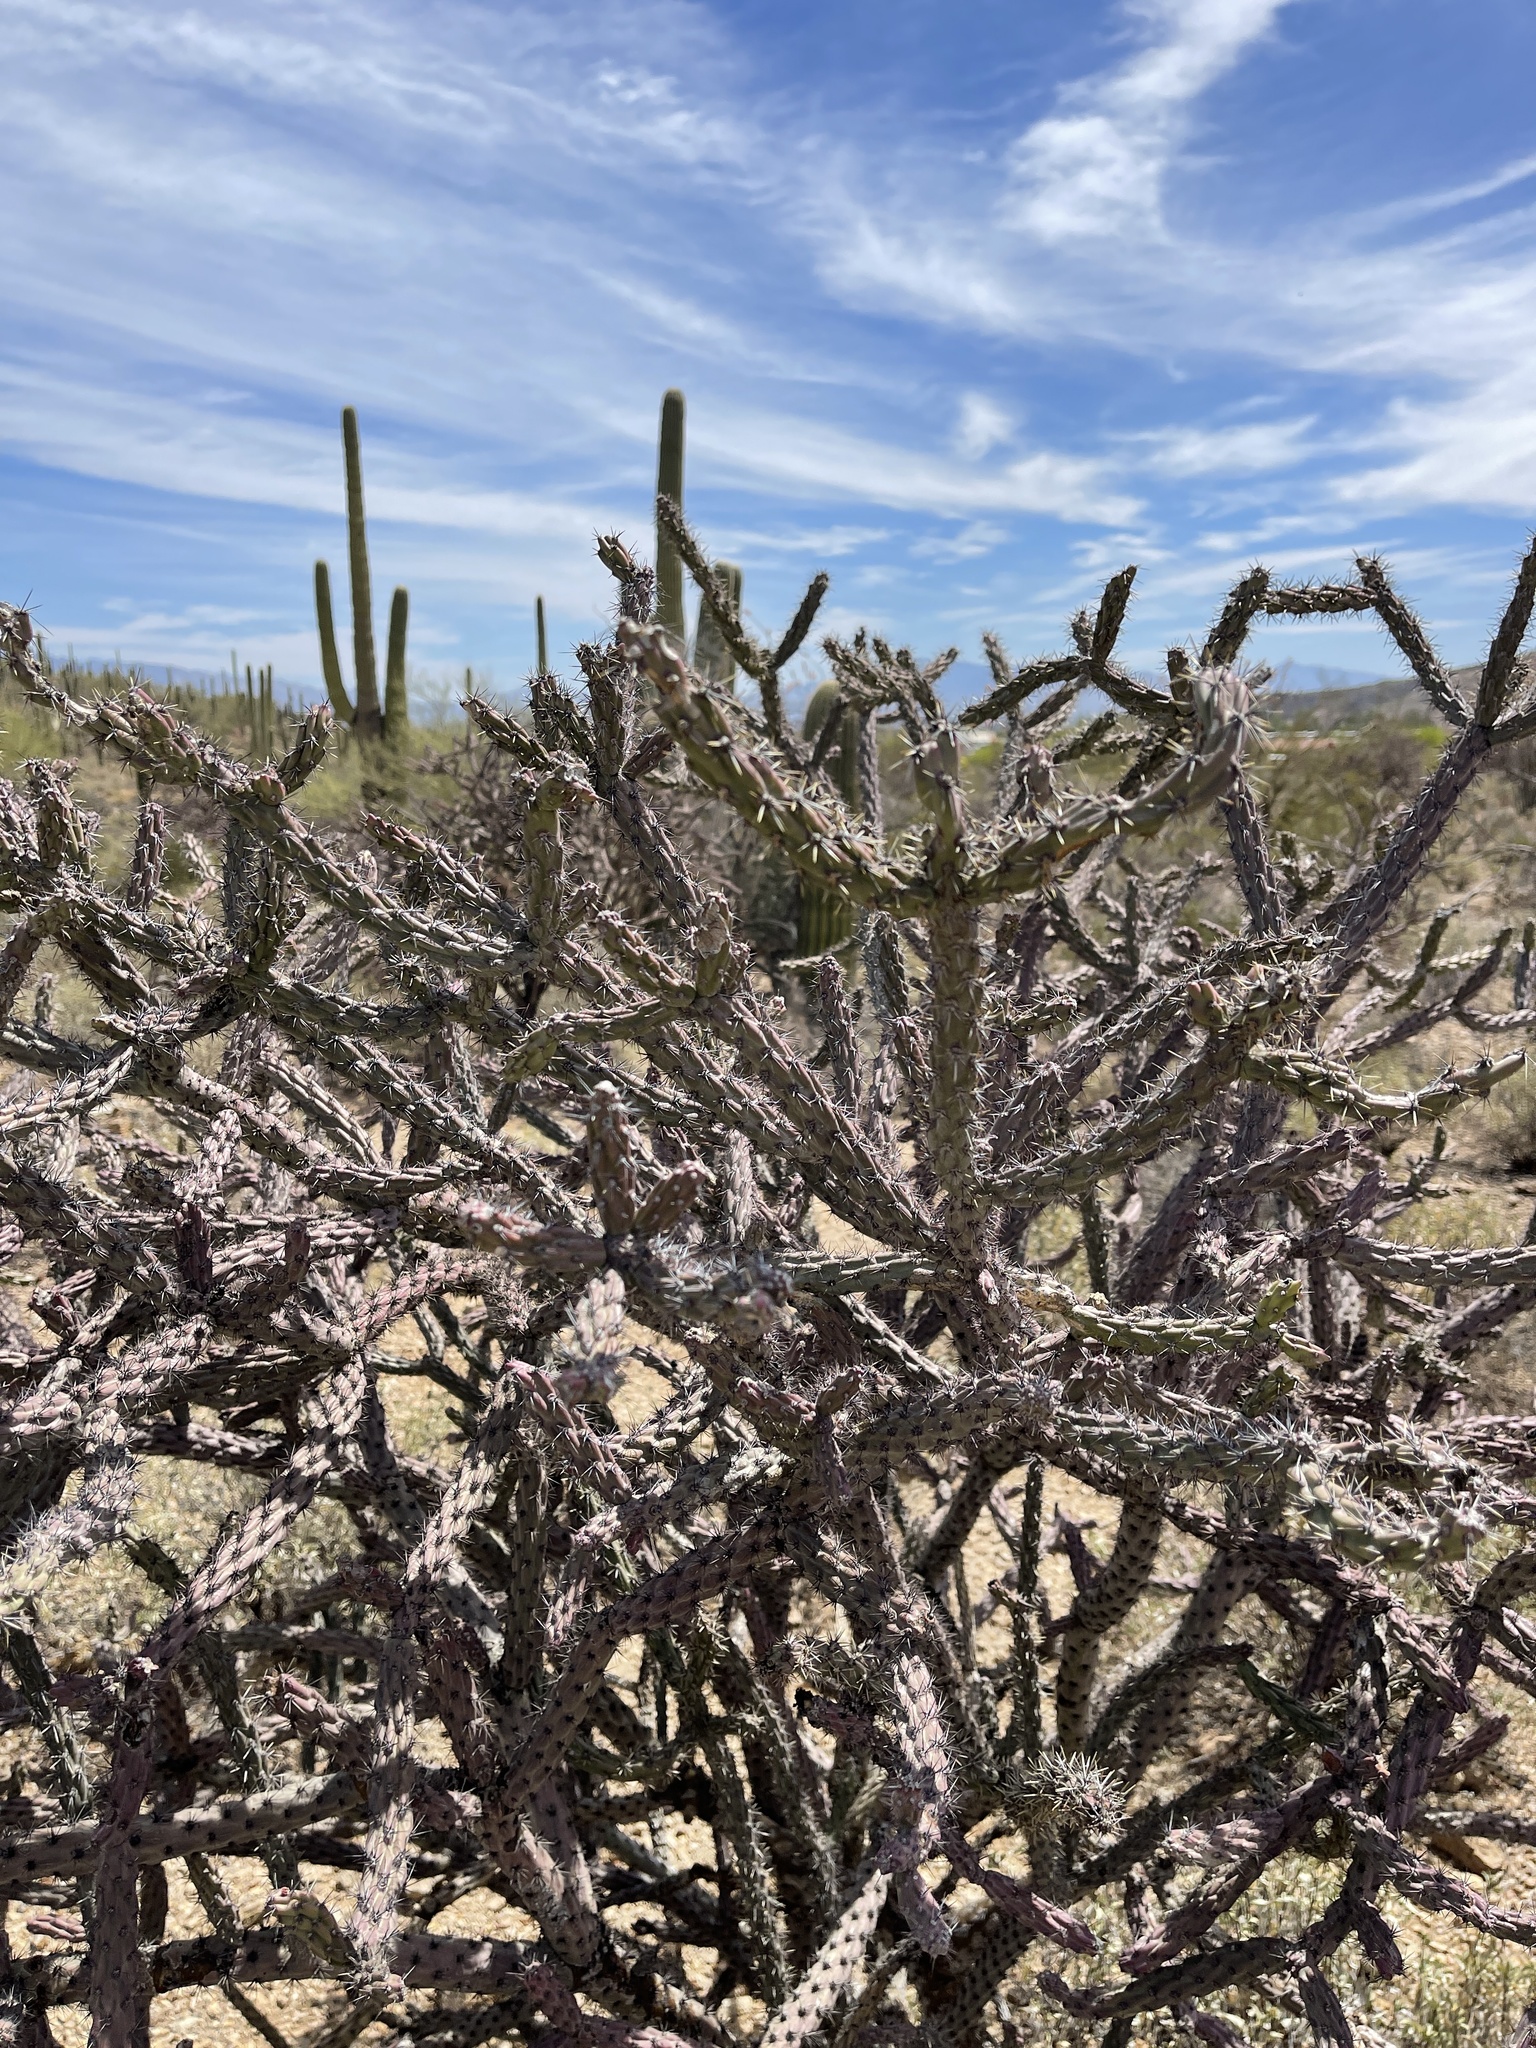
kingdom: Plantae
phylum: Tracheophyta
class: Magnoliopsida
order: Caryophyllales
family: Cactaceae
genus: Cylindropuntia
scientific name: Cylindropuntia thurberi
